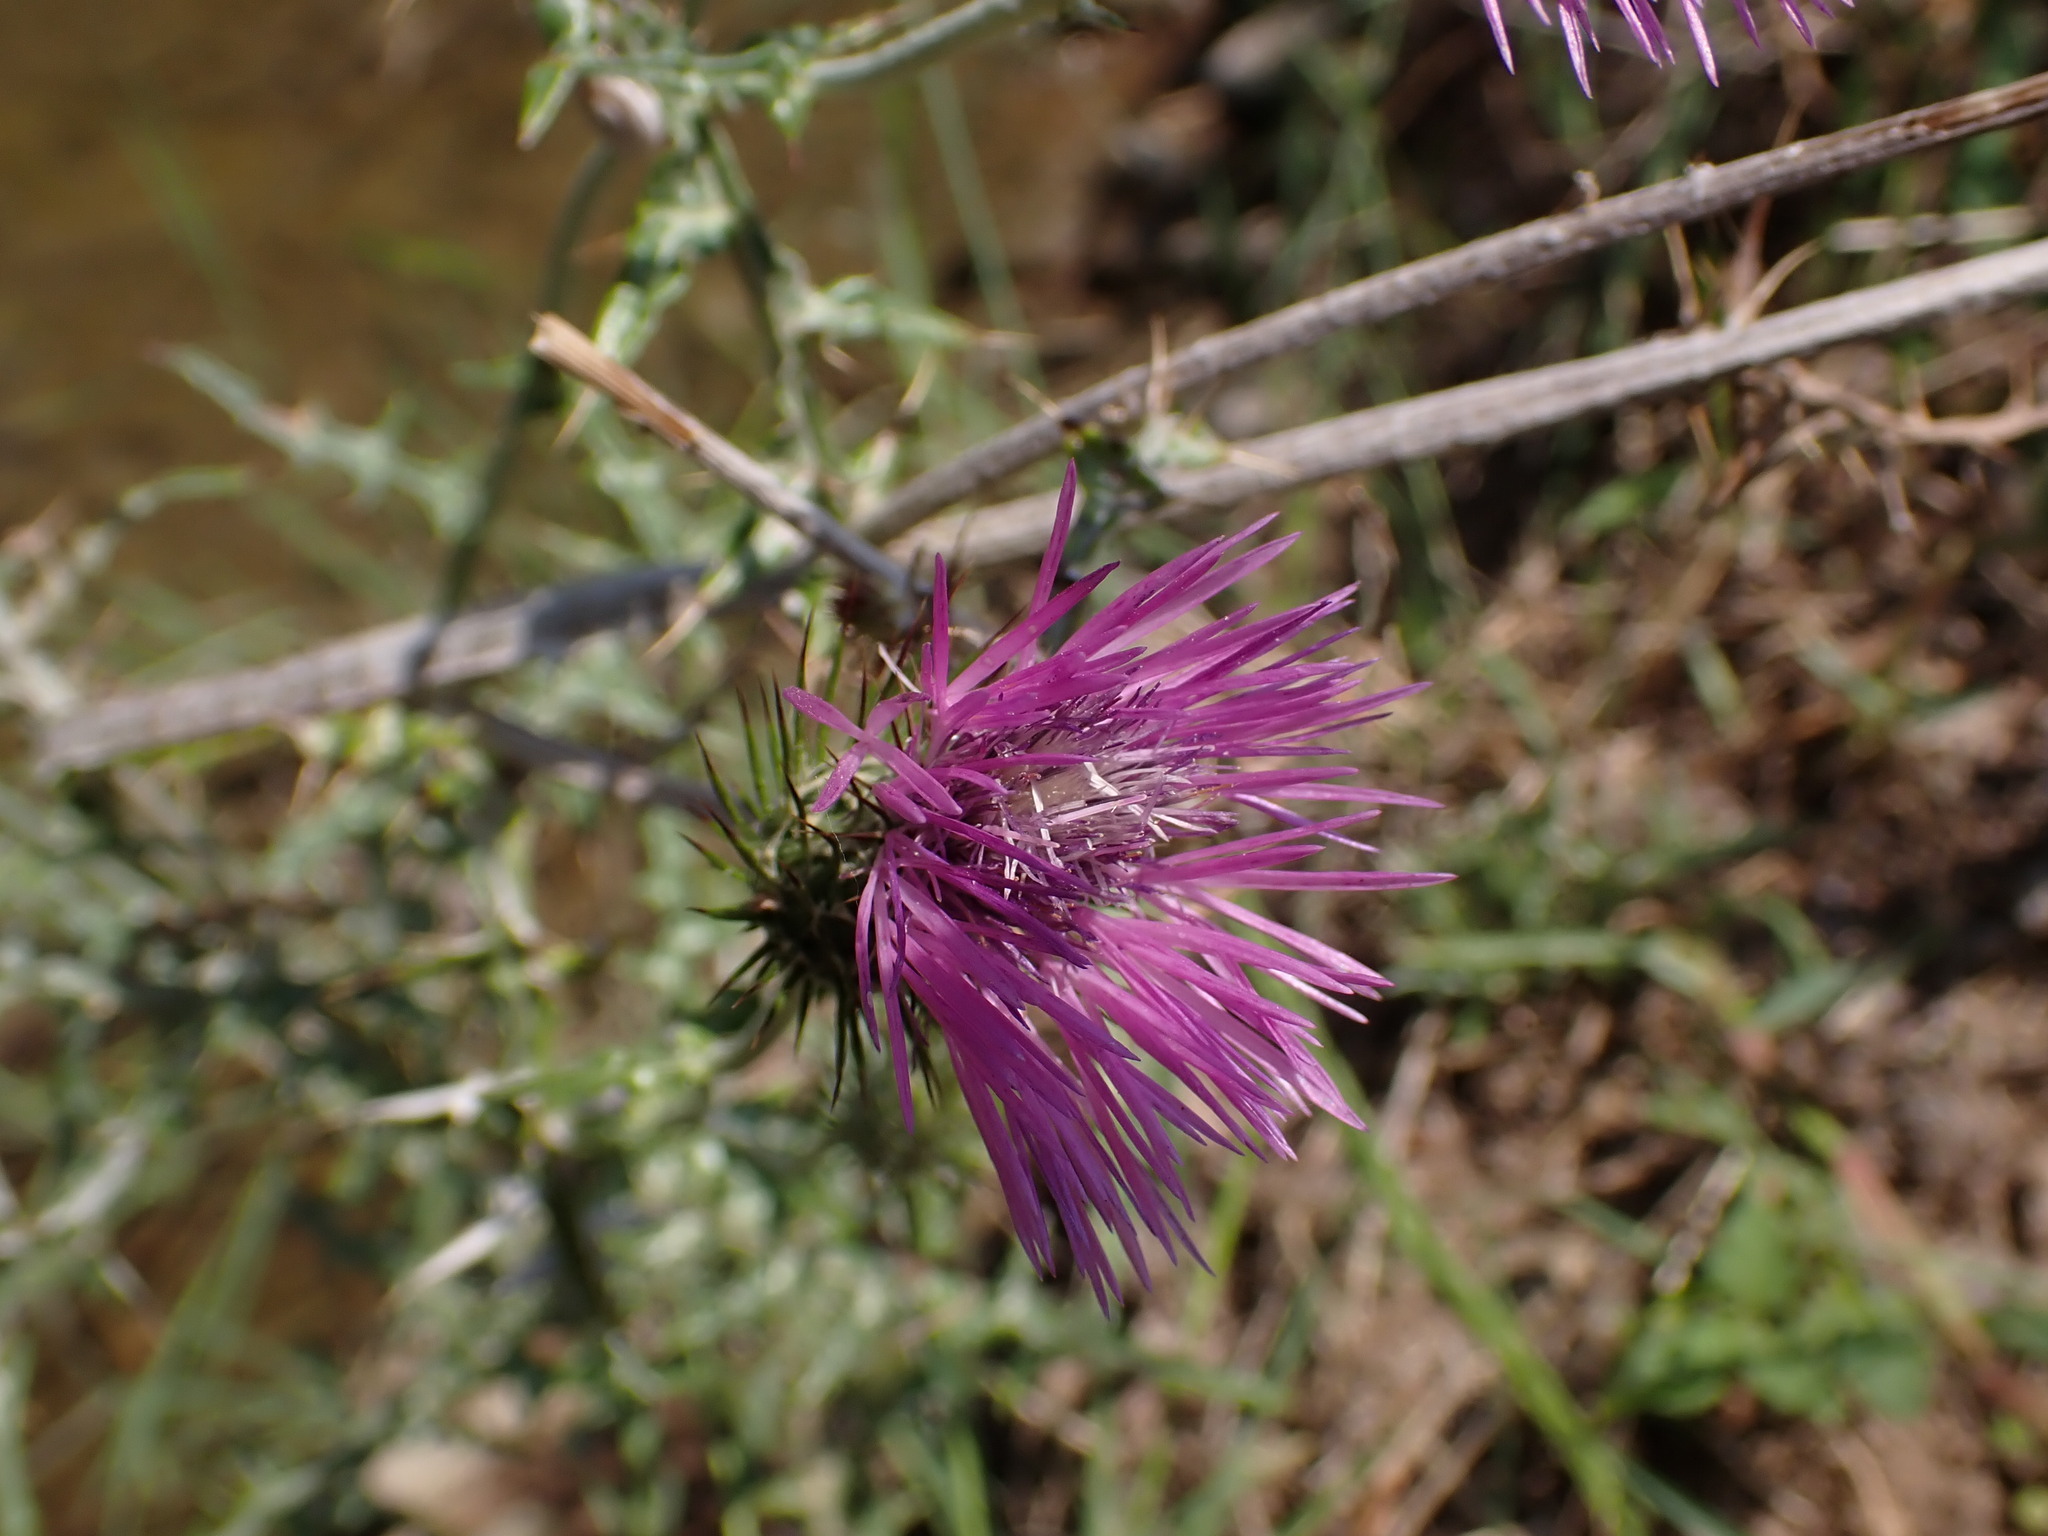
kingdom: Plantae
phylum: Tracheophyta
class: Magnoliopsida
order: Asterales
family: Asteraceae
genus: Galactites
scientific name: Galactites tomentosa
